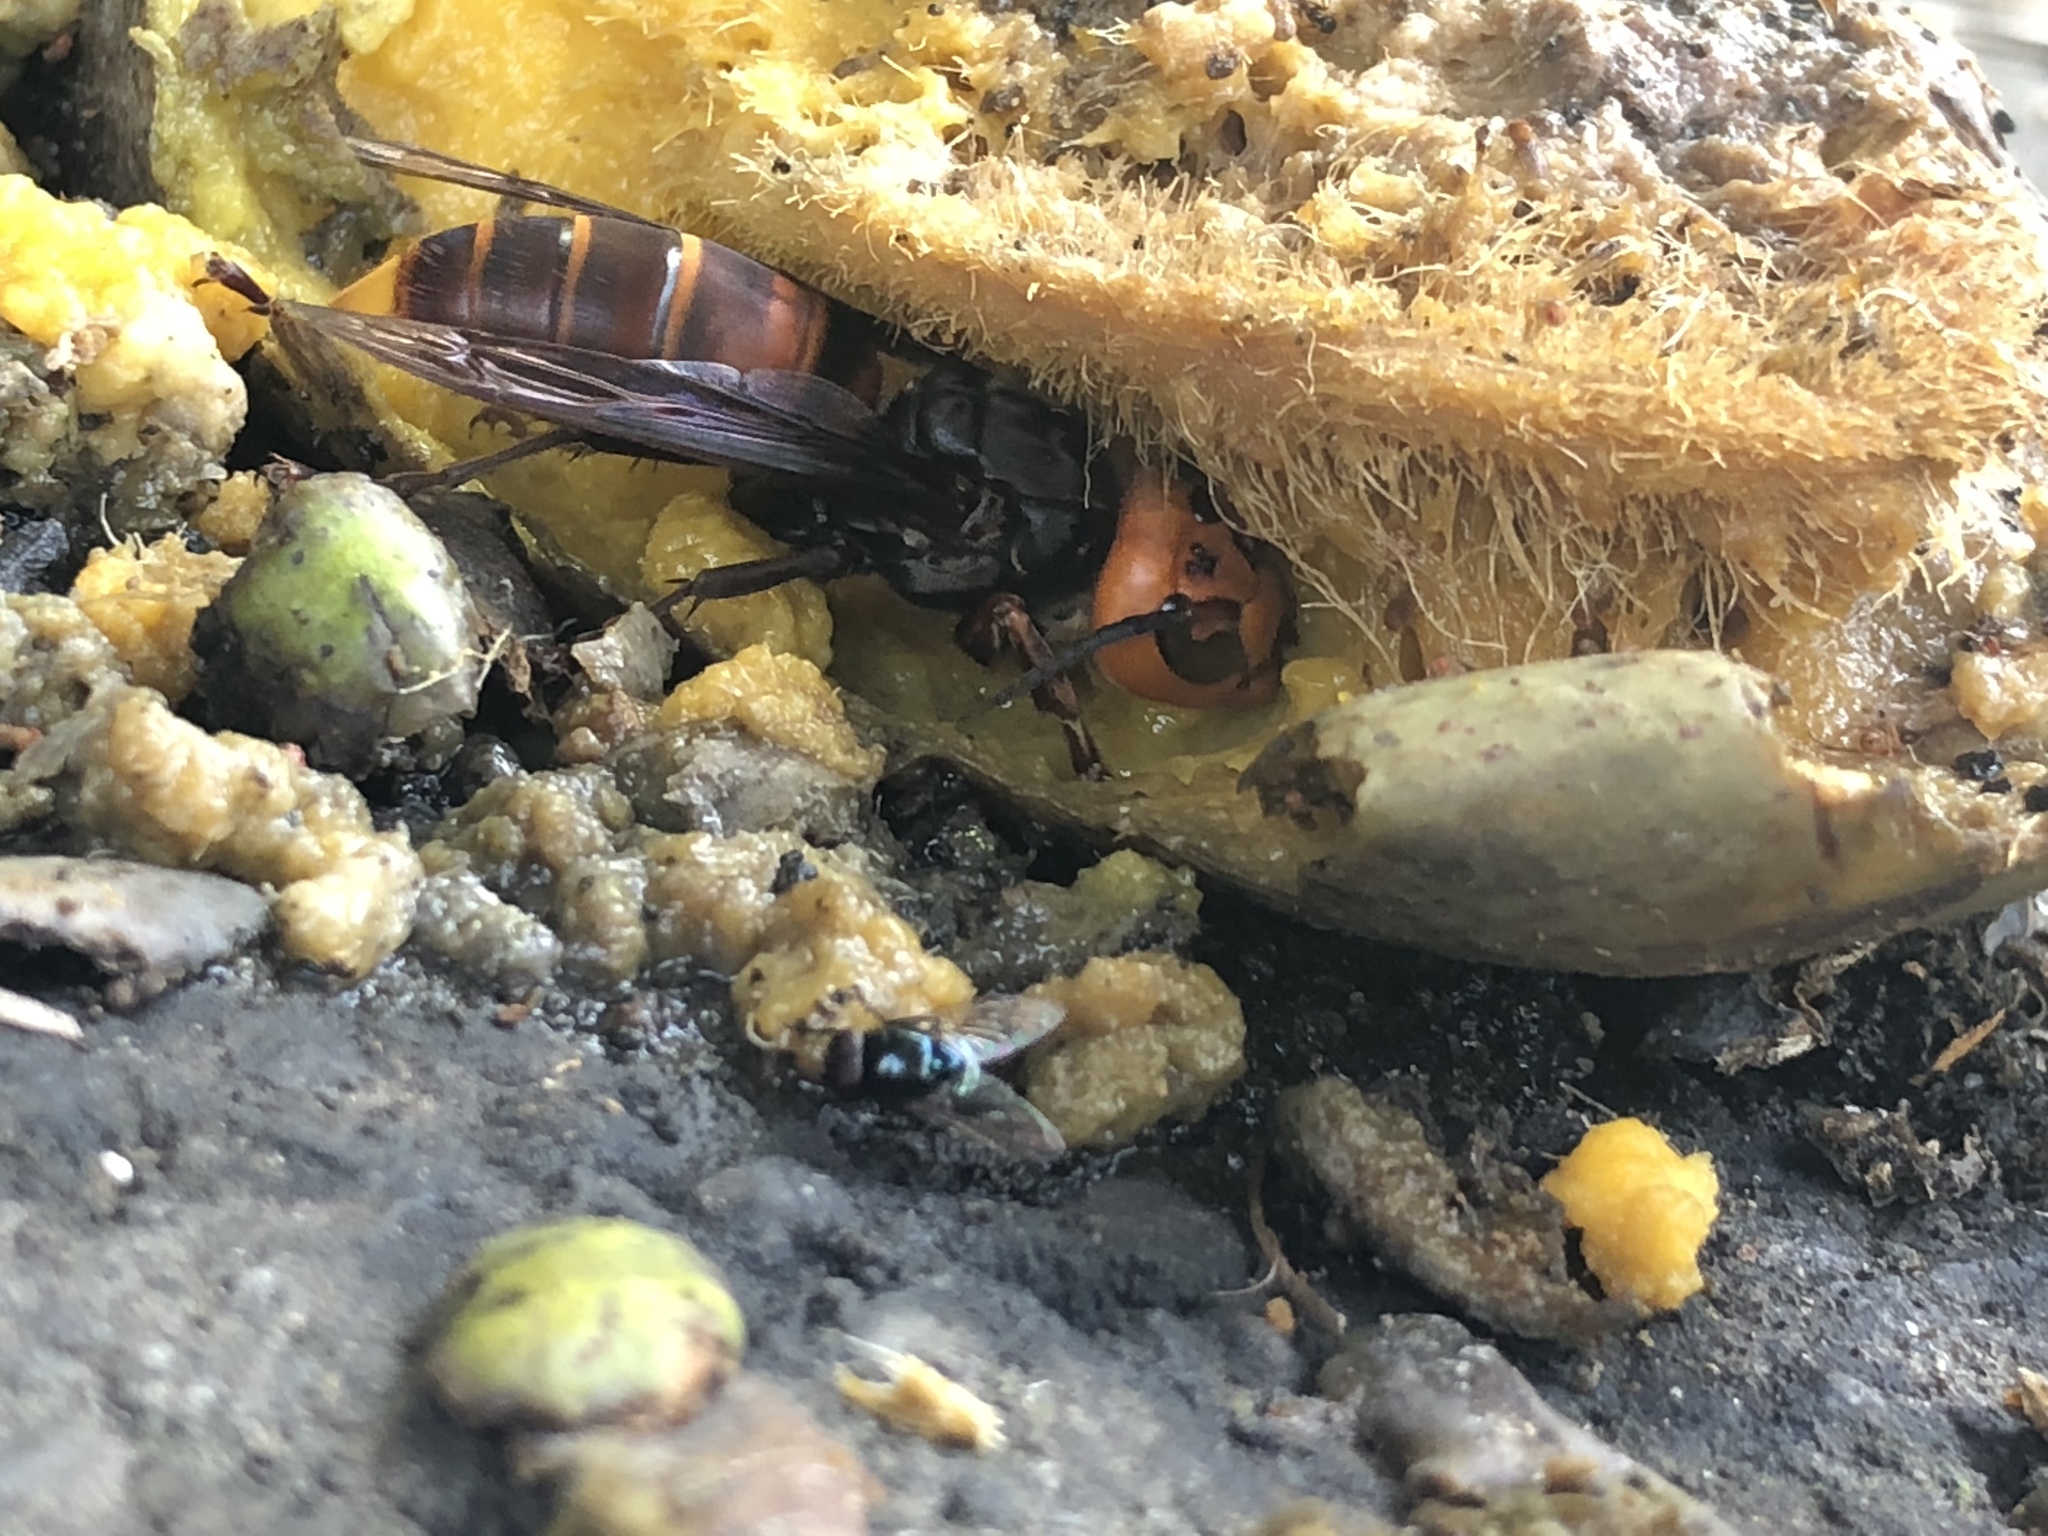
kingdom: Animalia
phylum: Arthropoda
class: Insecta
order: Hymenoptera
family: Vespidae
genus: Vespa
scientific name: Vespa mandarinia
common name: Asian giant hornet
